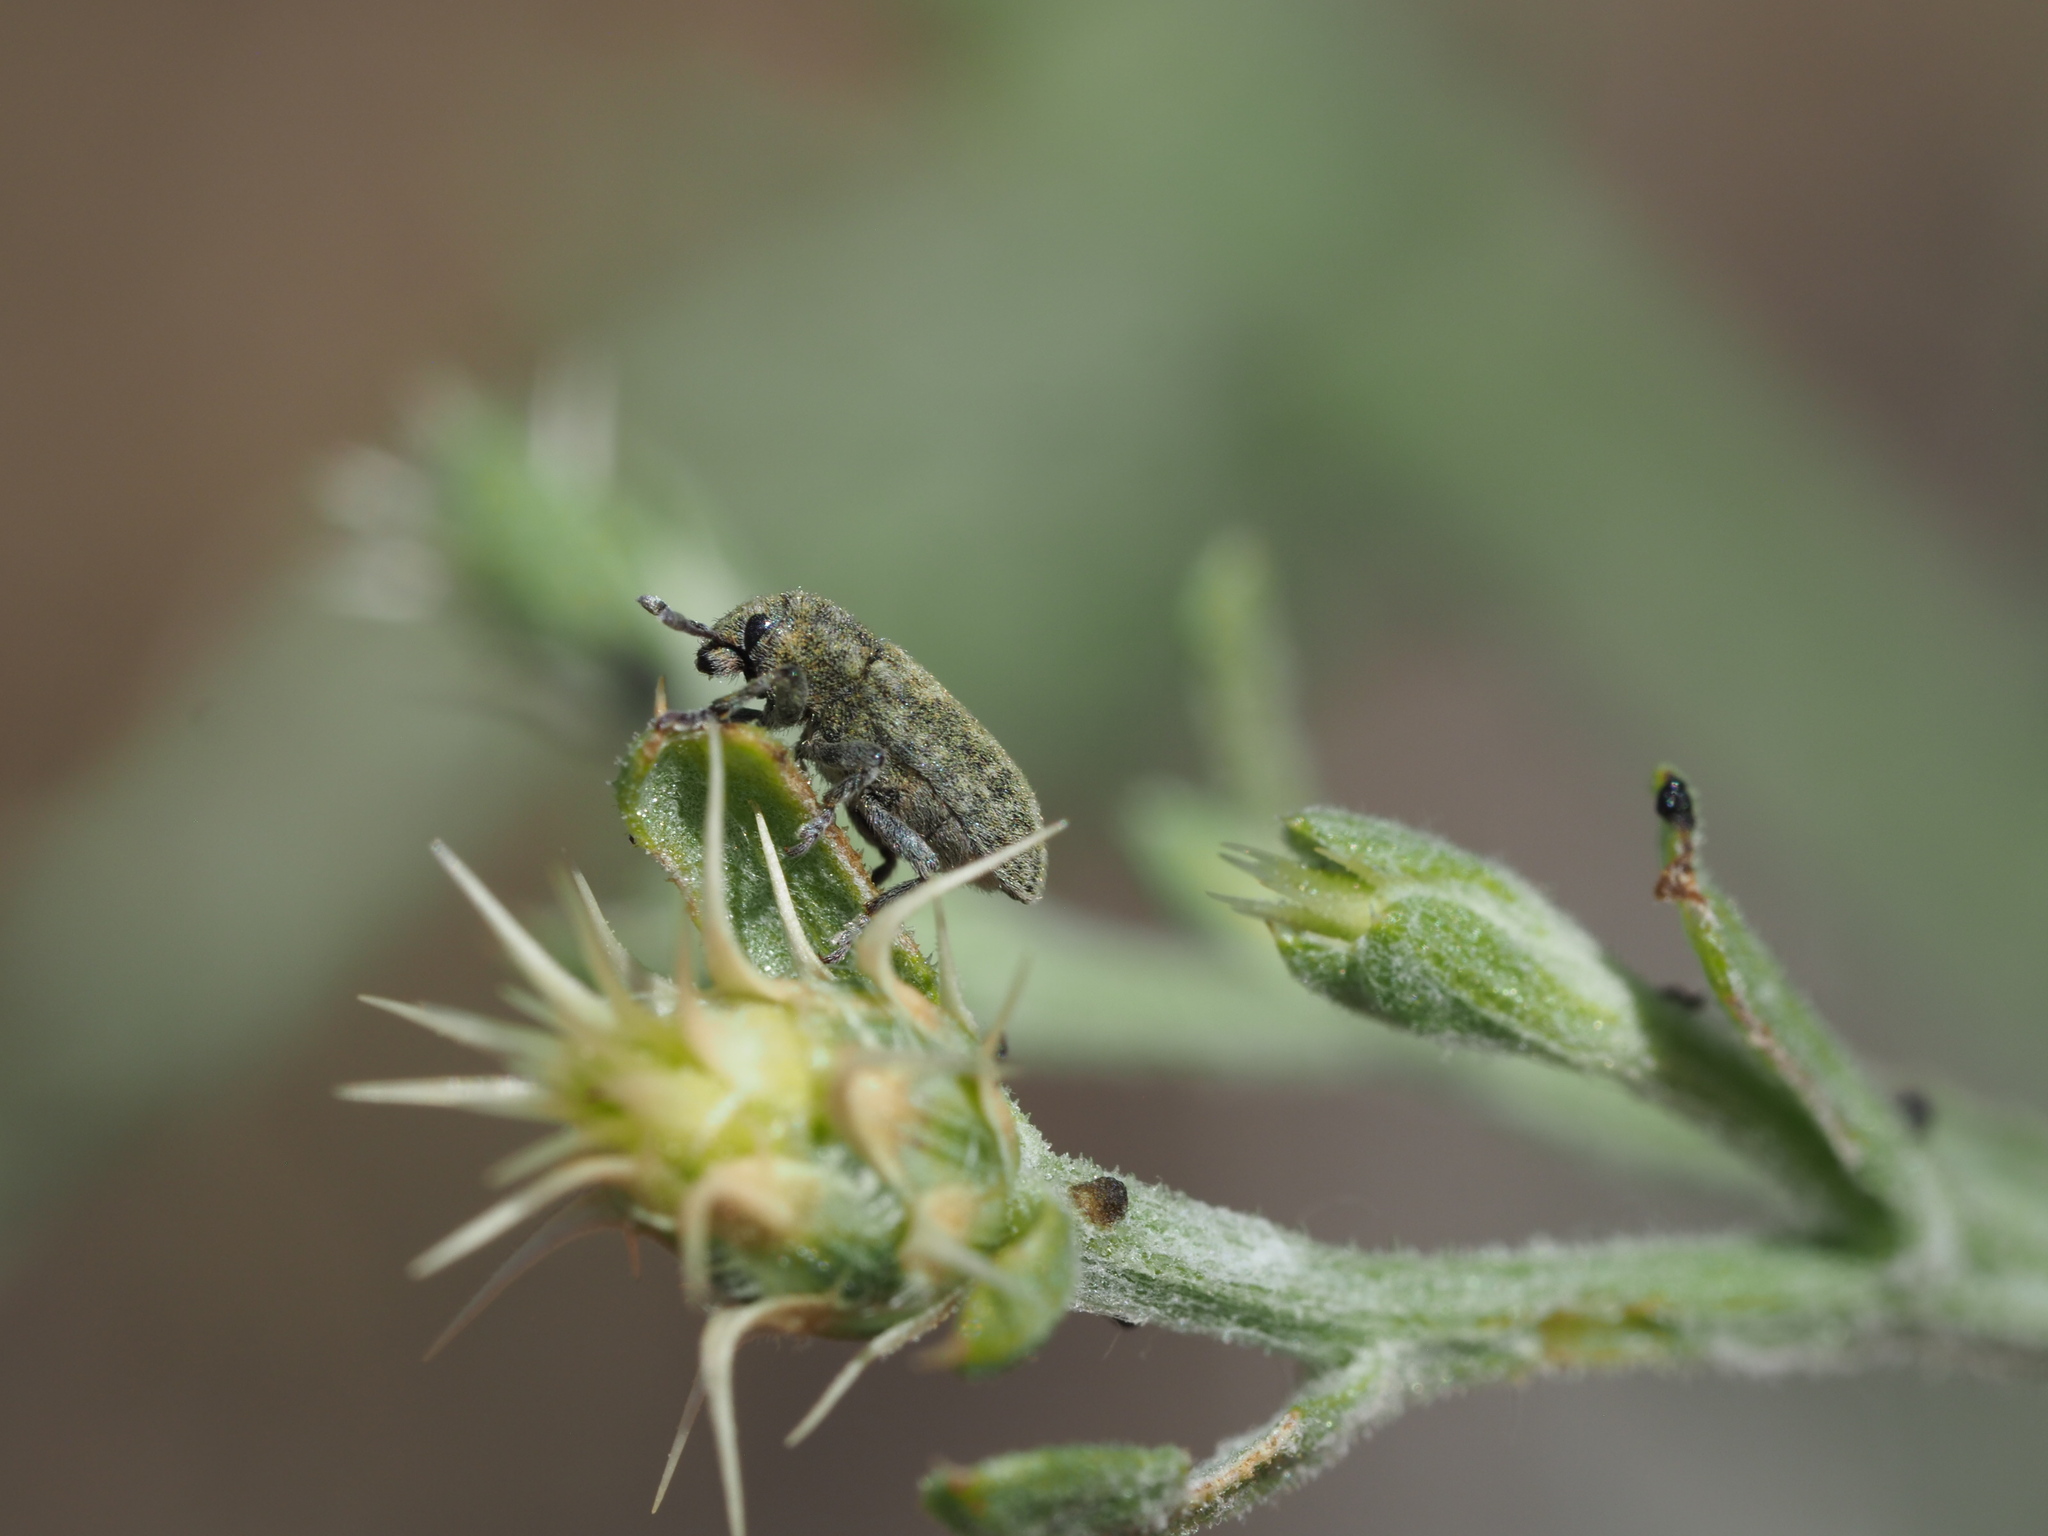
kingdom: Animalia
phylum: Arthropoda
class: Insecta
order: Coleoptera
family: Curculionidae
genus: Bangasternus
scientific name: Bangasternus fausti
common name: Broad-nosed knapweed seedhead weevil
